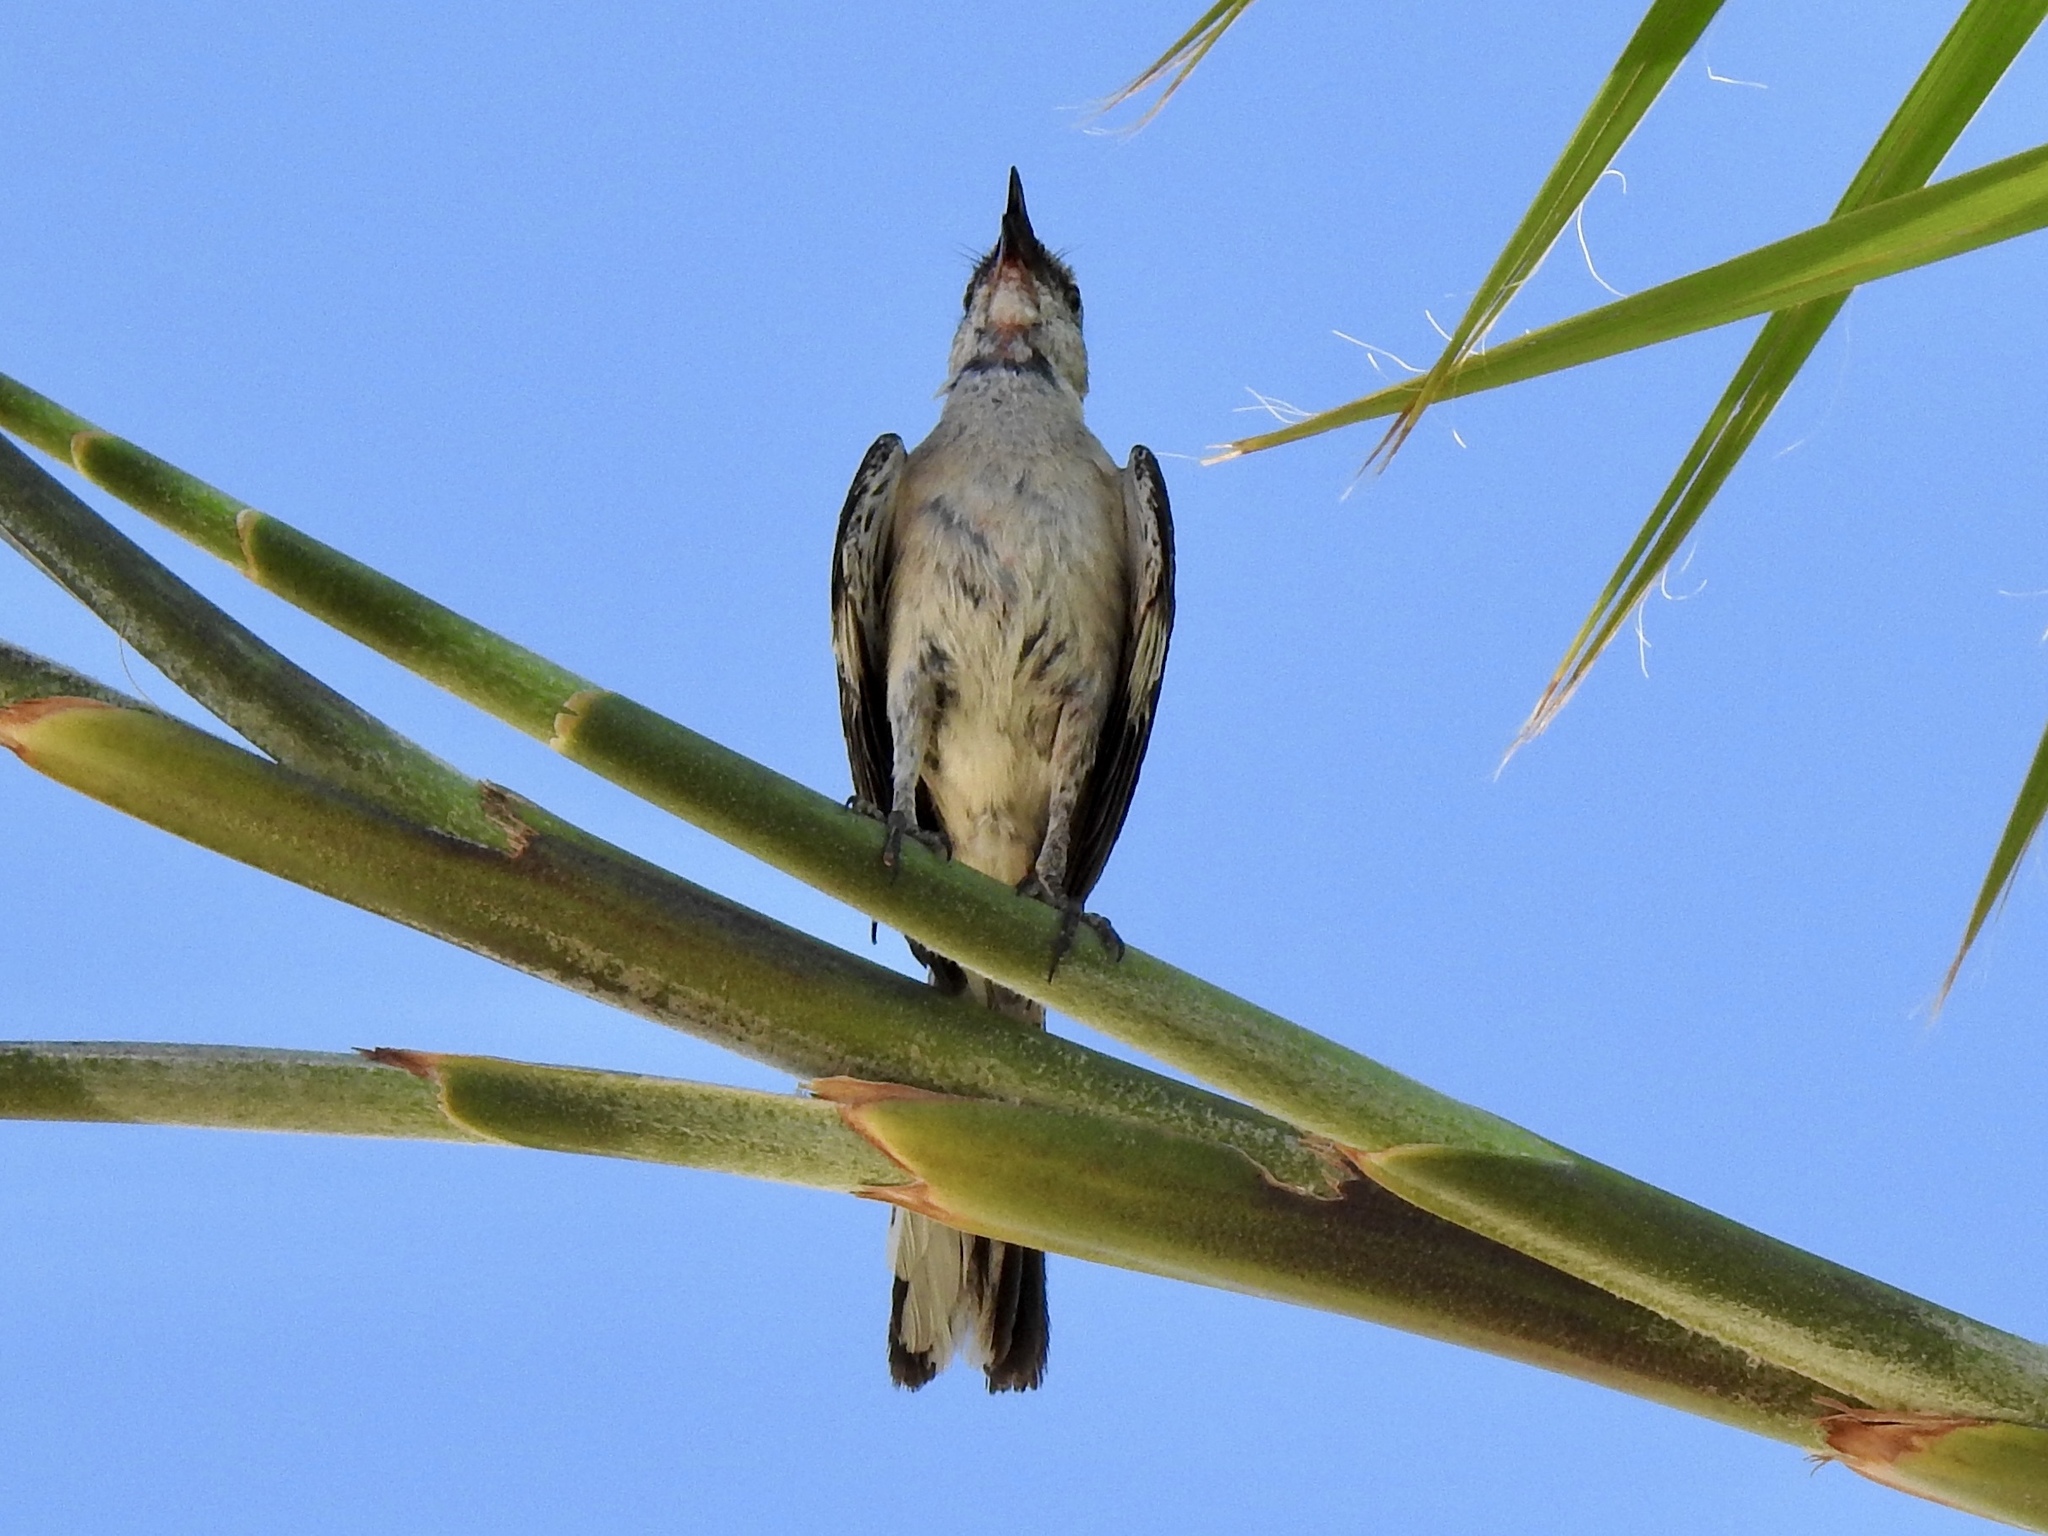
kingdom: Animalia
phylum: Chordata
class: Aves
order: Passeriformes
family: Mimidae
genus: Mimus
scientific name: Mimus polyglottos
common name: Northern mockingbird
